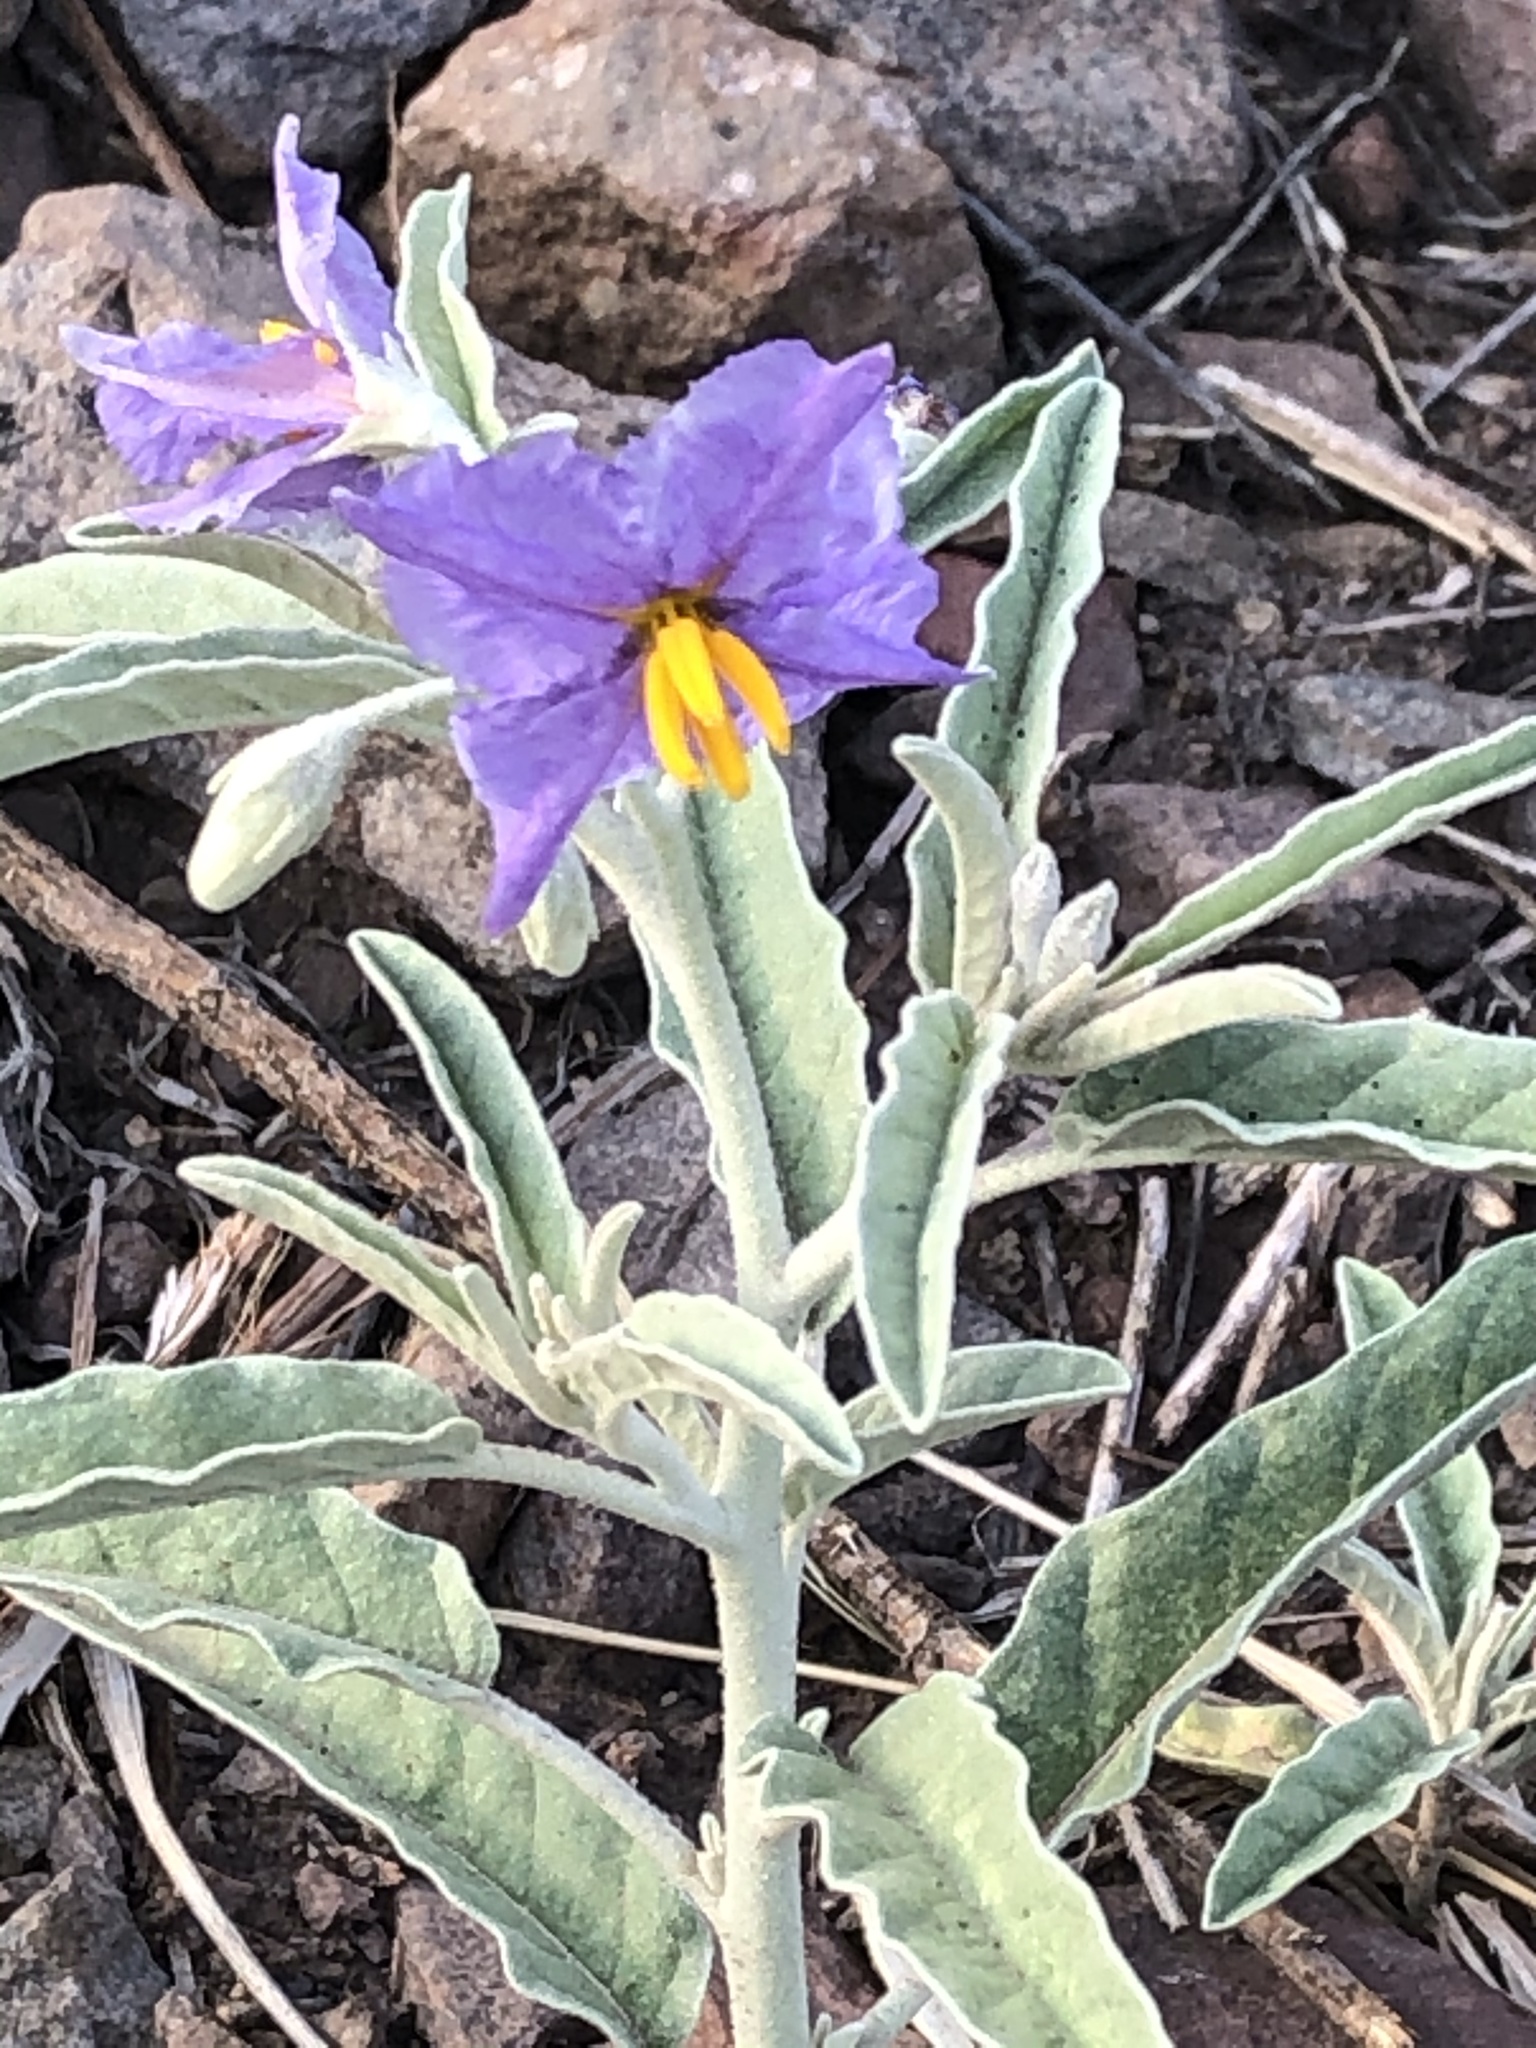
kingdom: Plantae
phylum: Tracheophyta
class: Magnoliopsida
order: Solanales
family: Solanaceae
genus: Solanum
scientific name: Solanum elaeagnifolium
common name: Silverleaf nightshade
